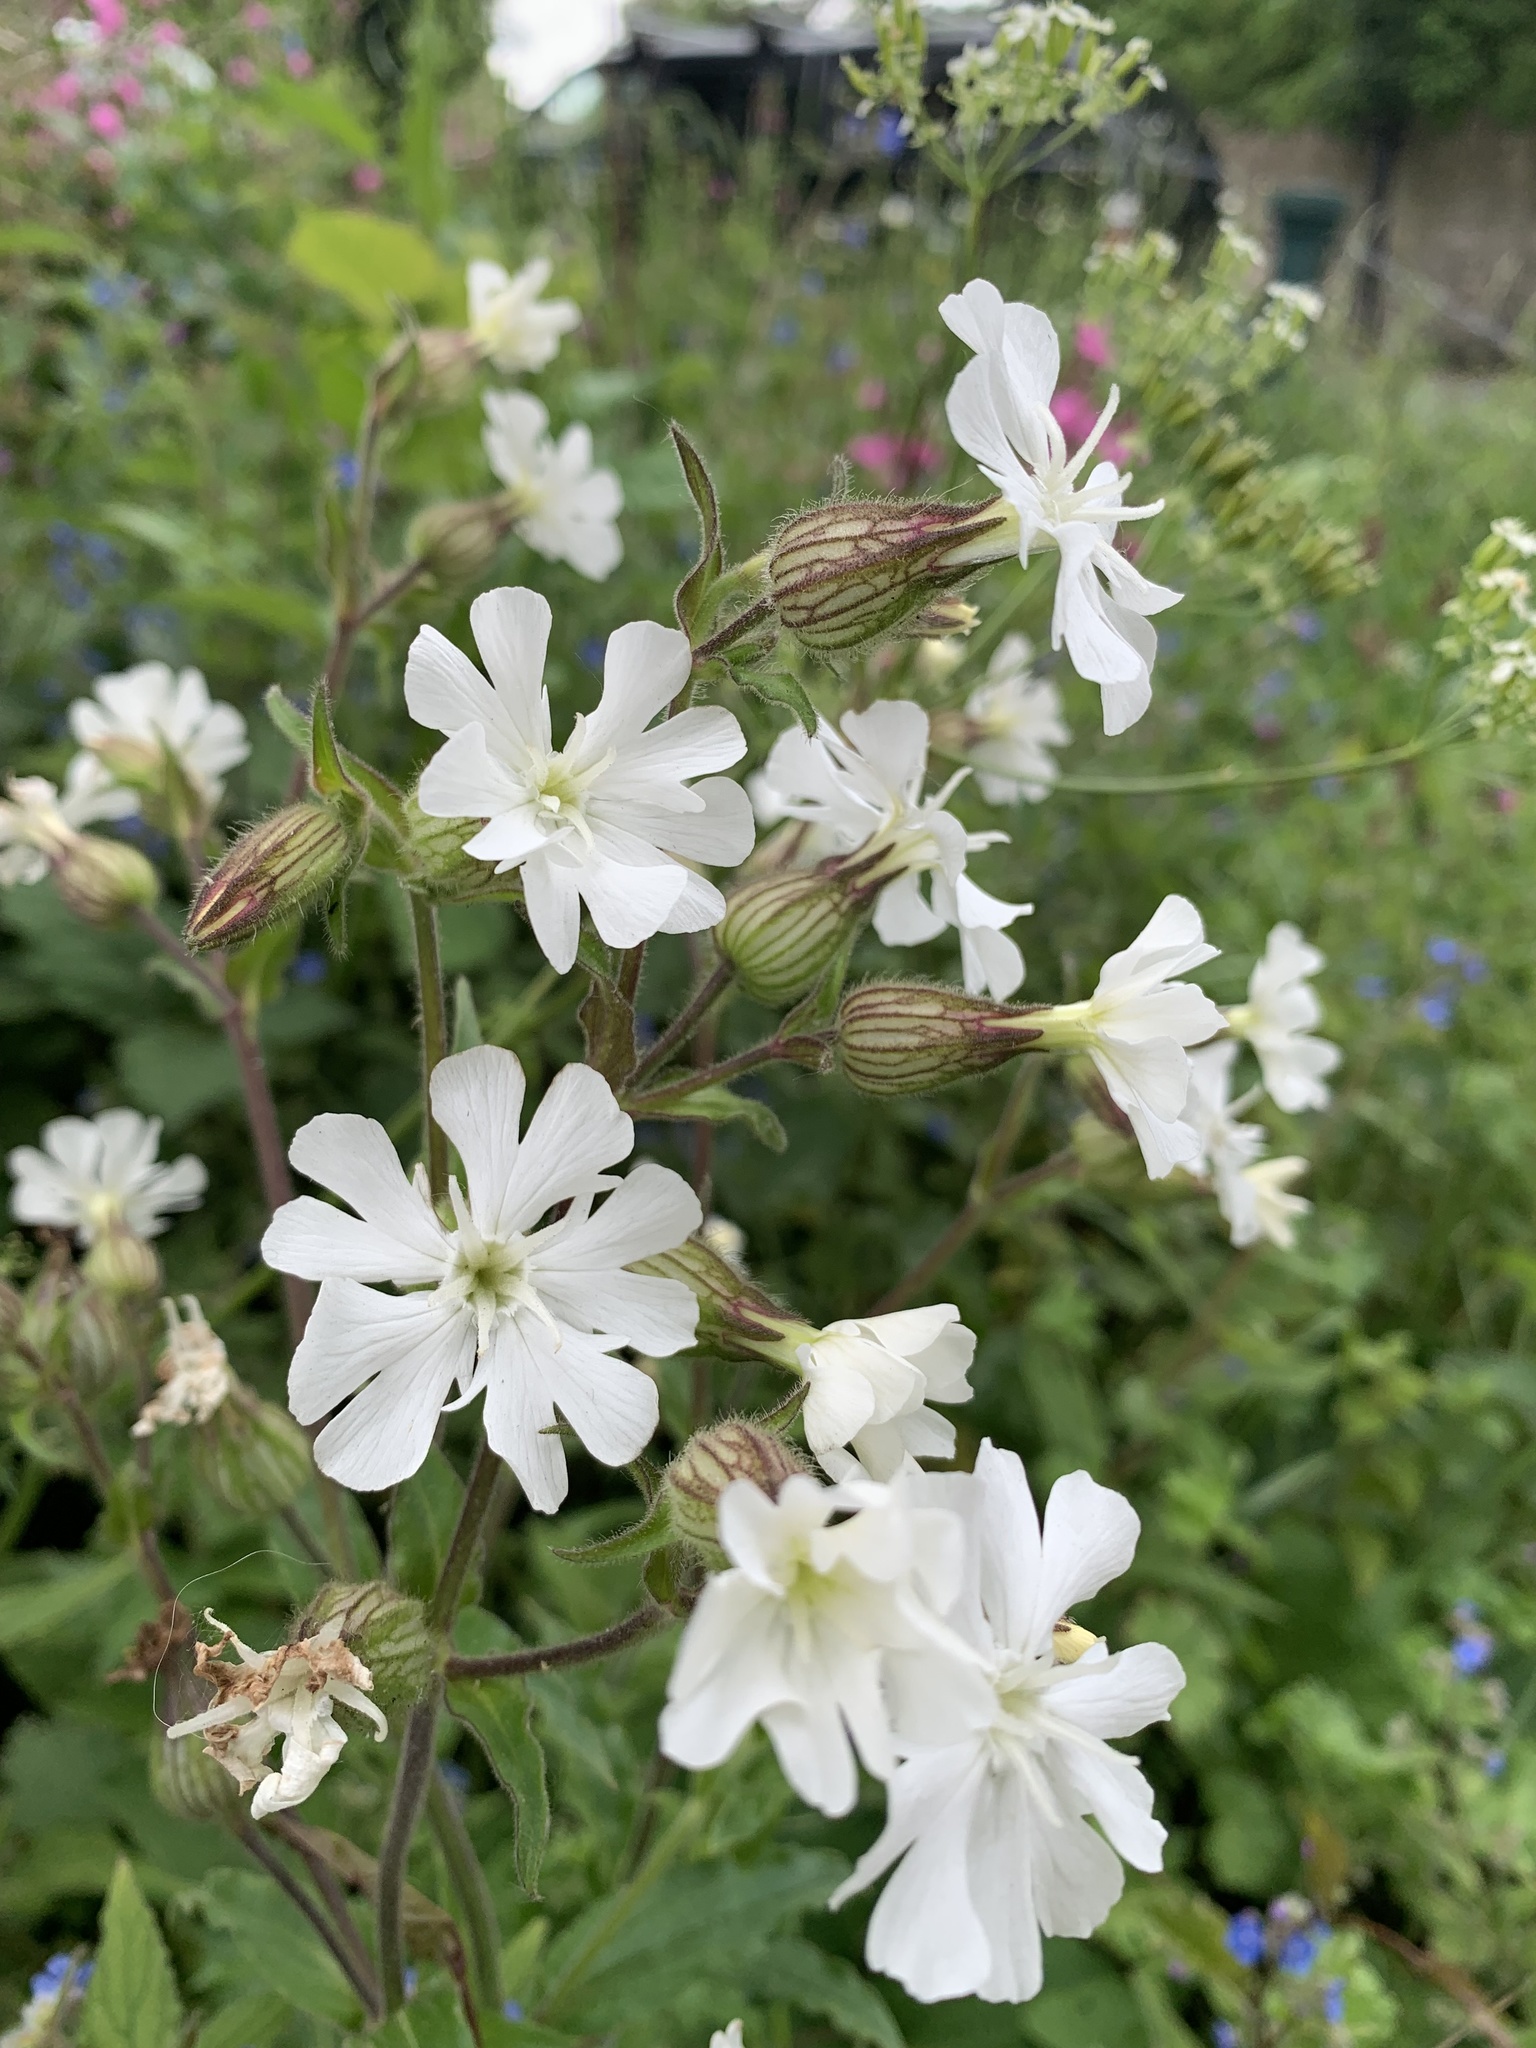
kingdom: Plantae
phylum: Tracheophyta
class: Magnoliopsida
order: Caryophyllales
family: Caryophyllaceae
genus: Silene
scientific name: Silene latifolia
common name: White campion
